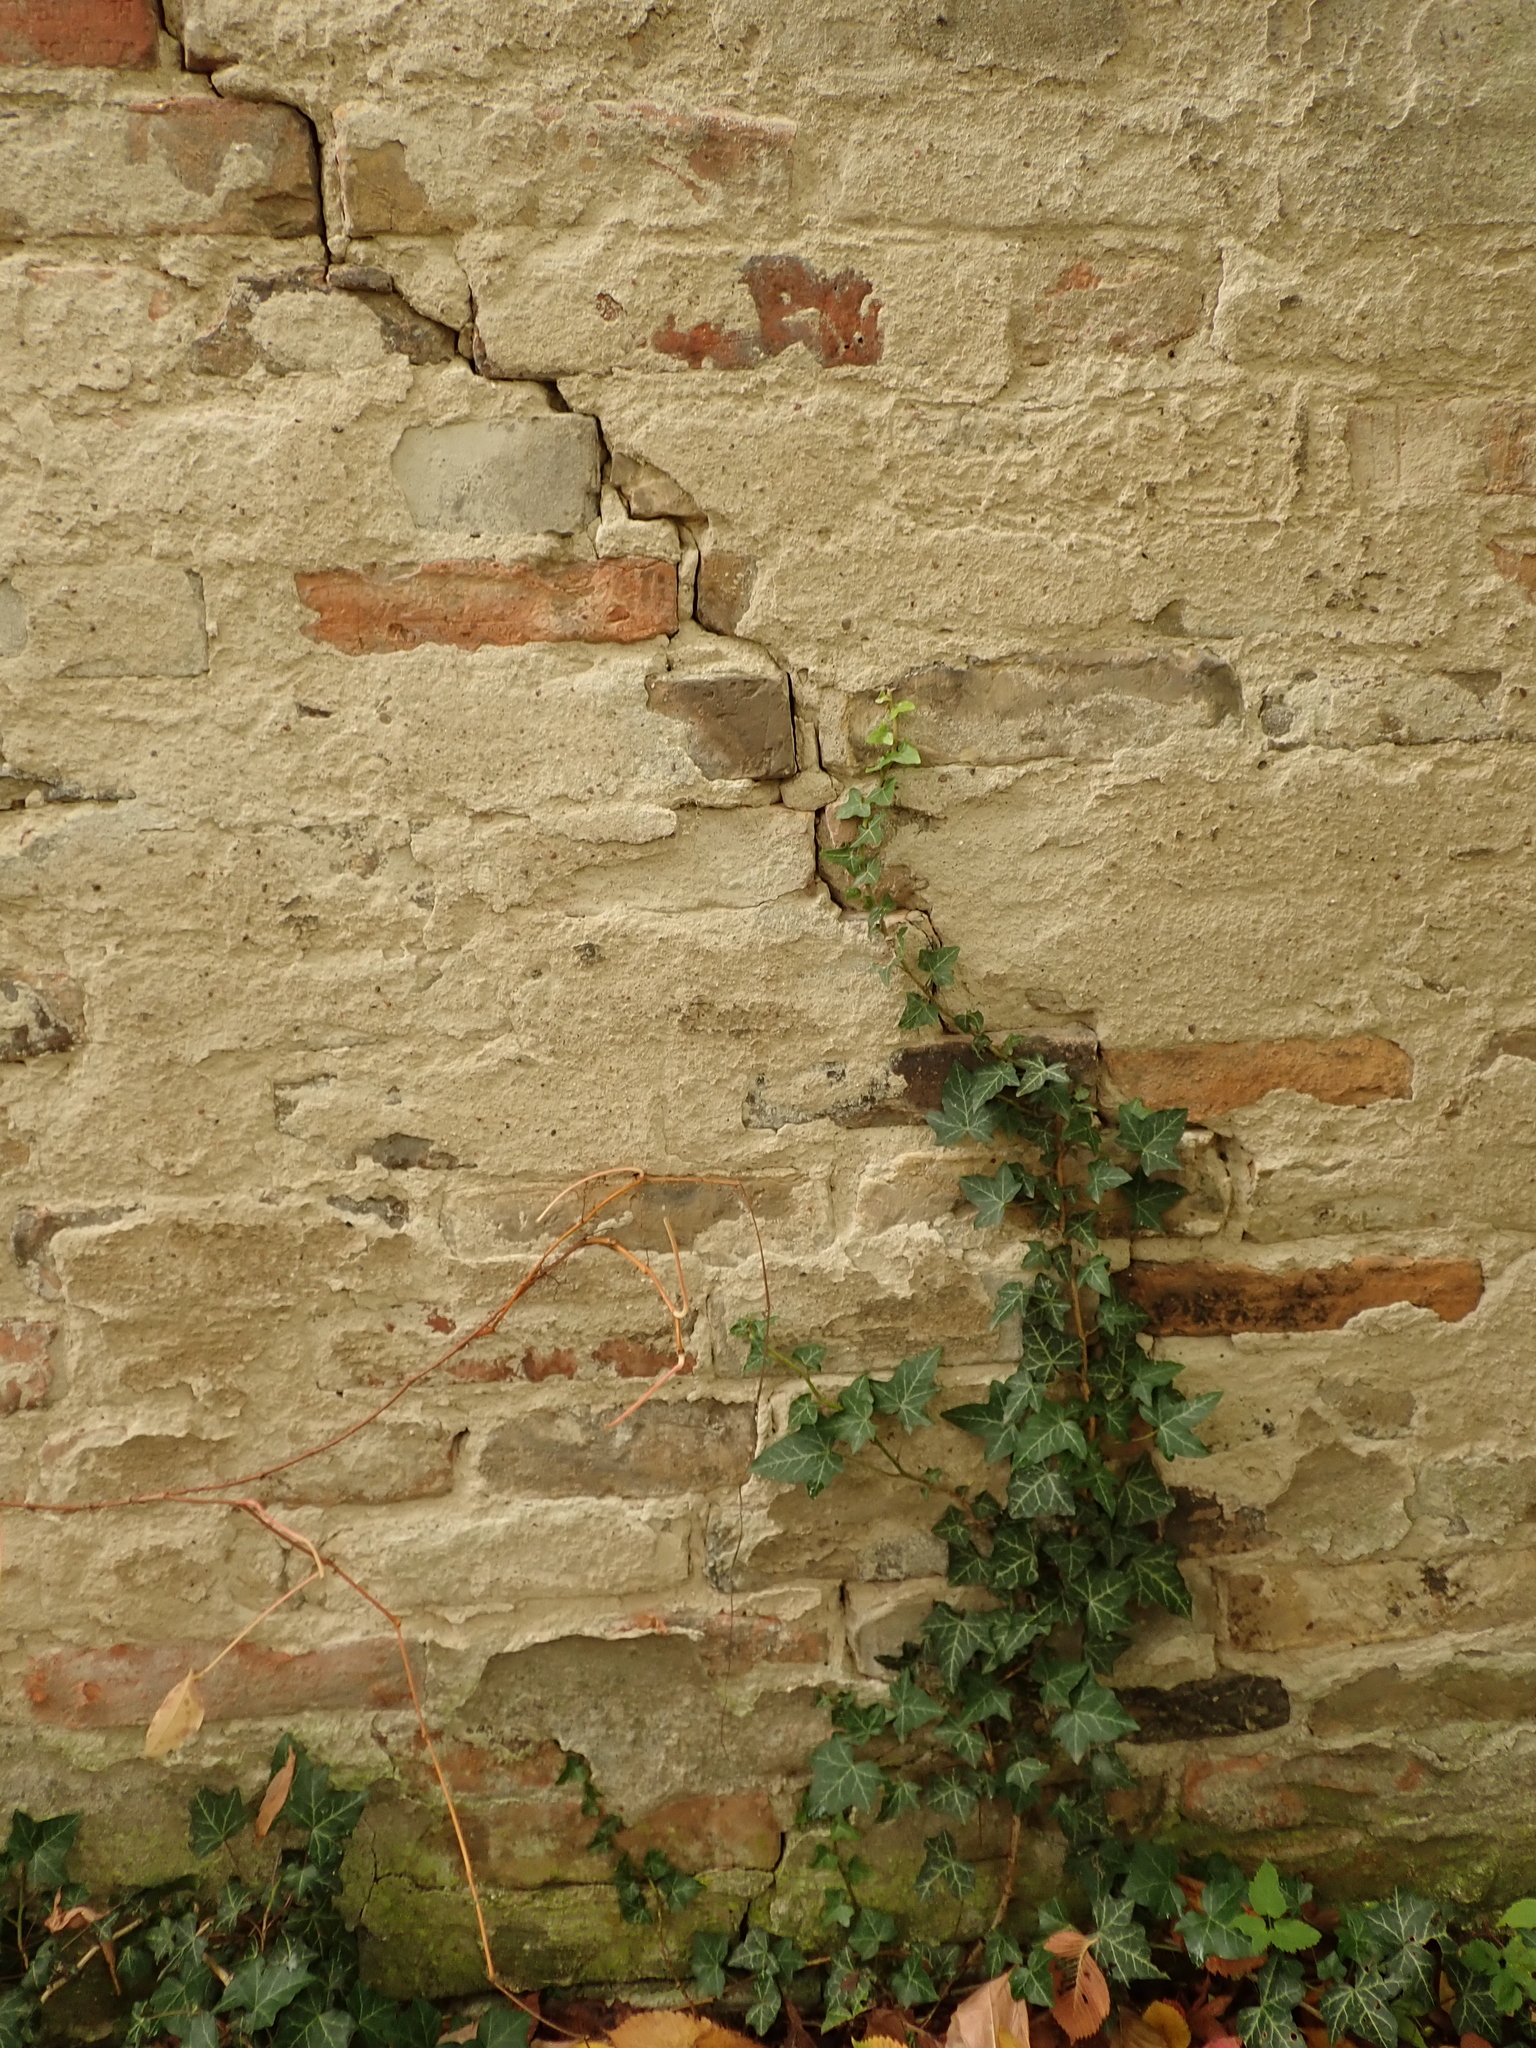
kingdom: Plantae
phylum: Tracheophyta
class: Magnoliopsida
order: Apiales
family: Araliaceae
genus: Hedera
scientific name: Hedera helix
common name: Ivy
